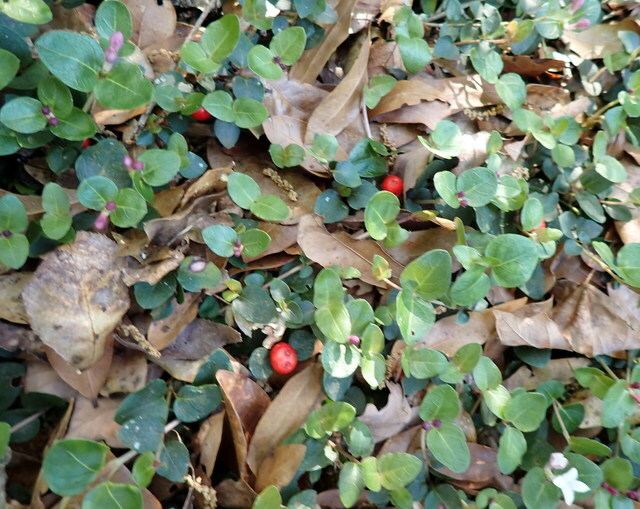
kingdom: Plantae
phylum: Tracheophyta
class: Magnoliopsida
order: Gentianales
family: Rubiaceae
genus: Mitchella
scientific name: Mitchella repens
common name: Partridge-berry
